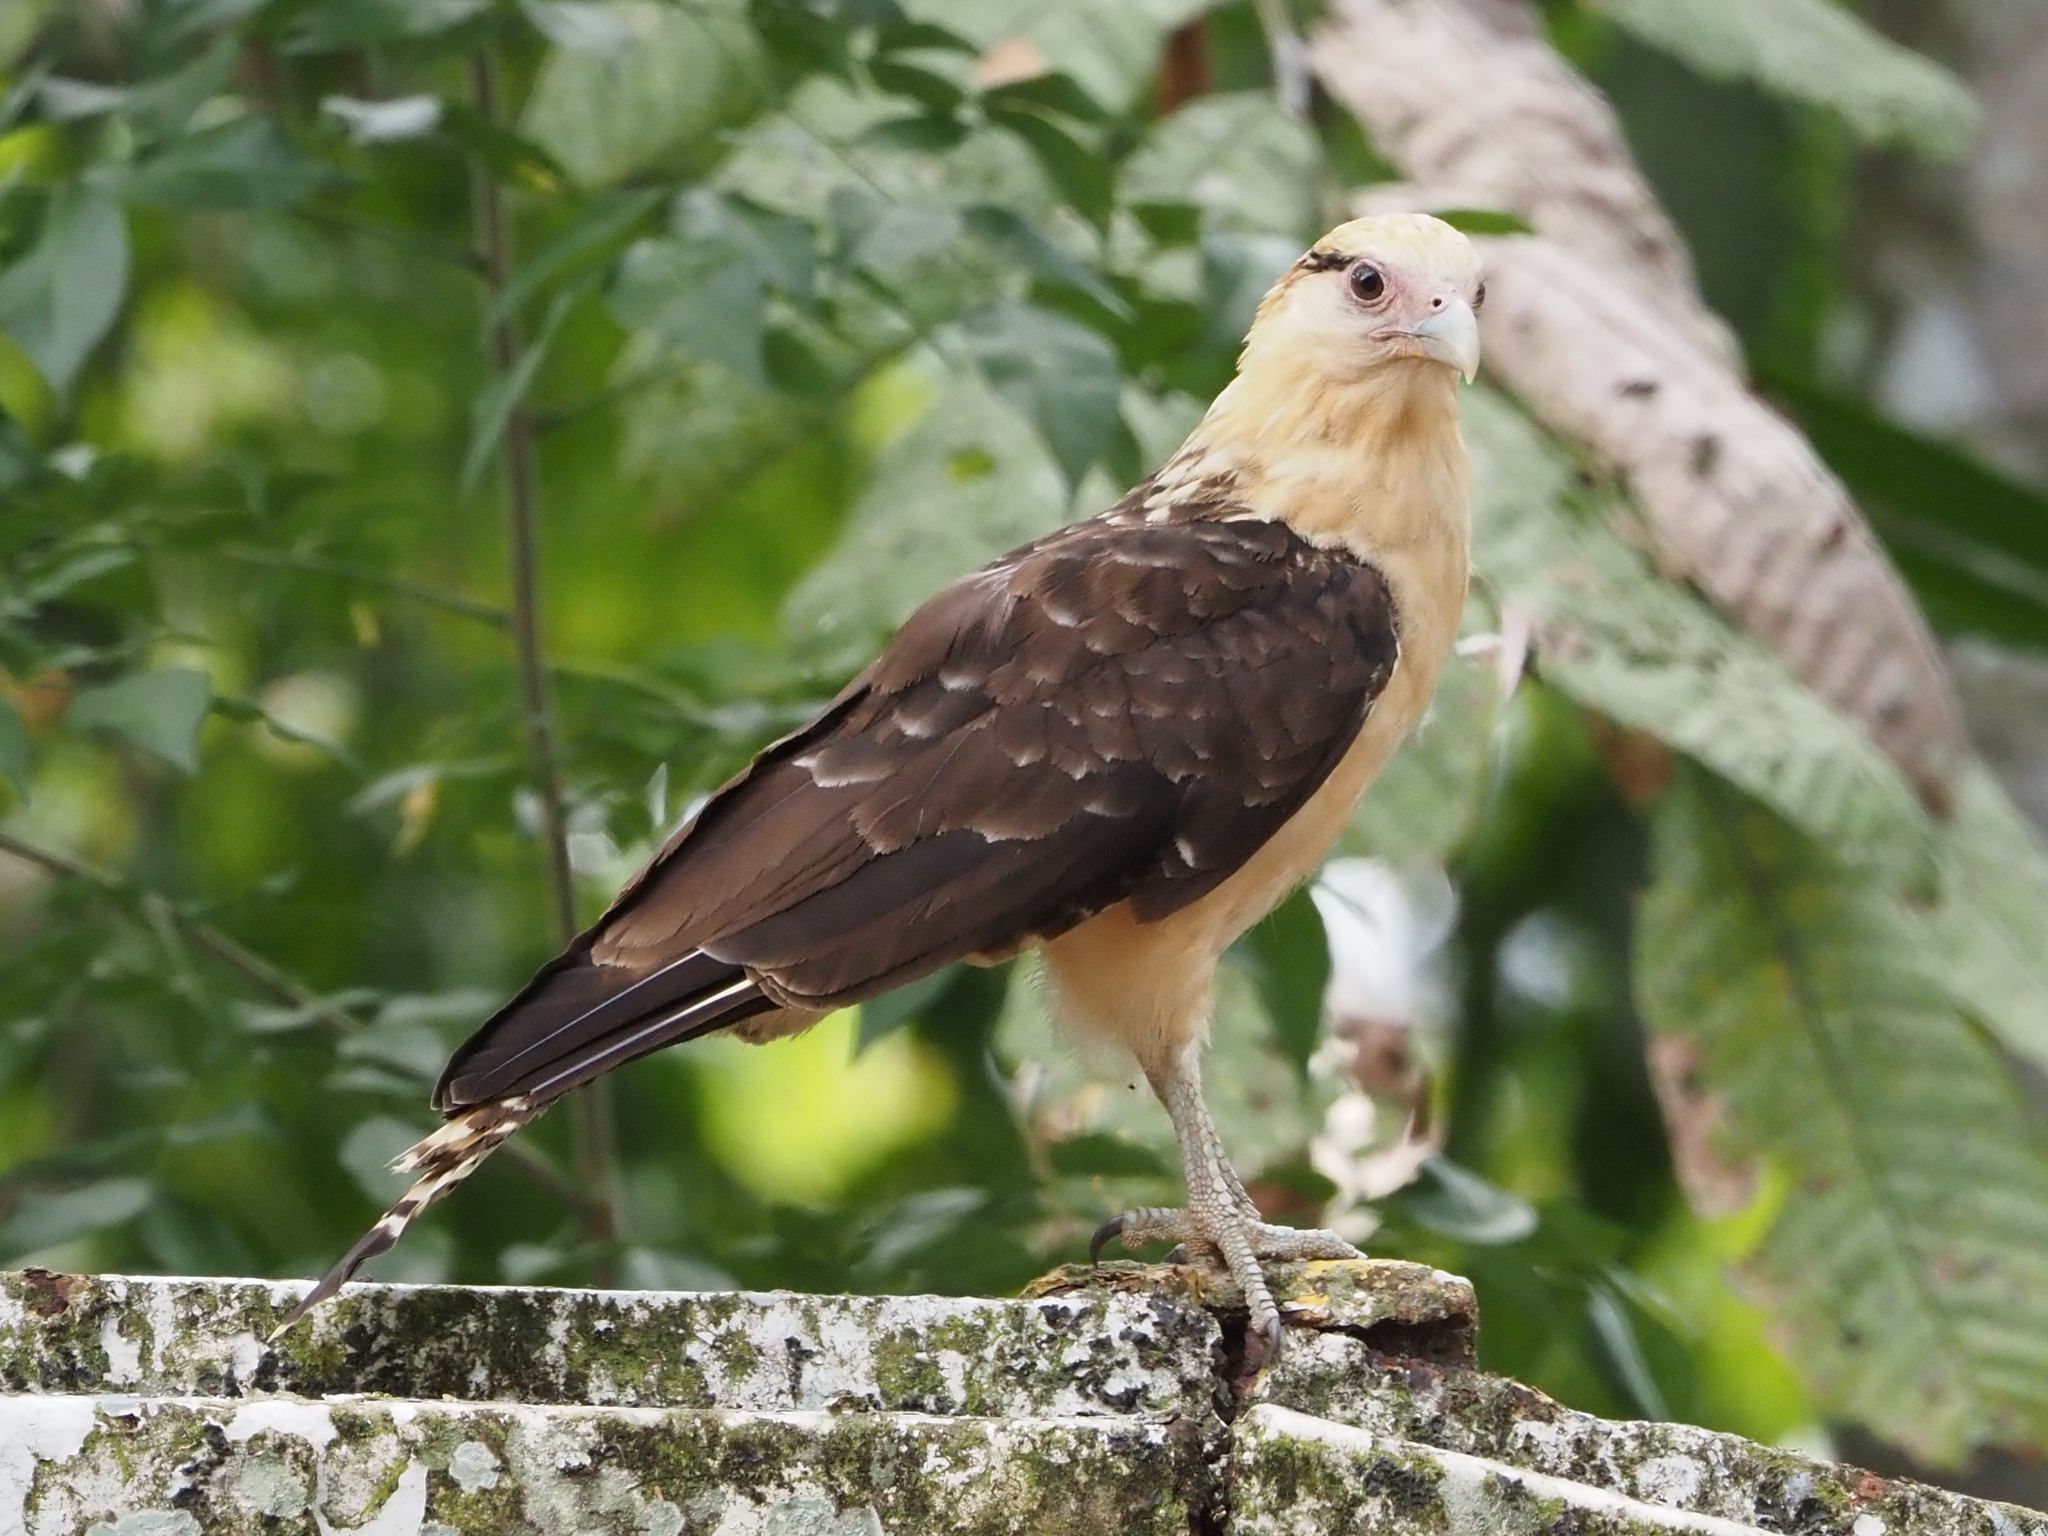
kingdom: Animalia
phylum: Chordata
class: Aves
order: Falconiformes
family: Falconidae
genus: Daptrius
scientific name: Daptrius
